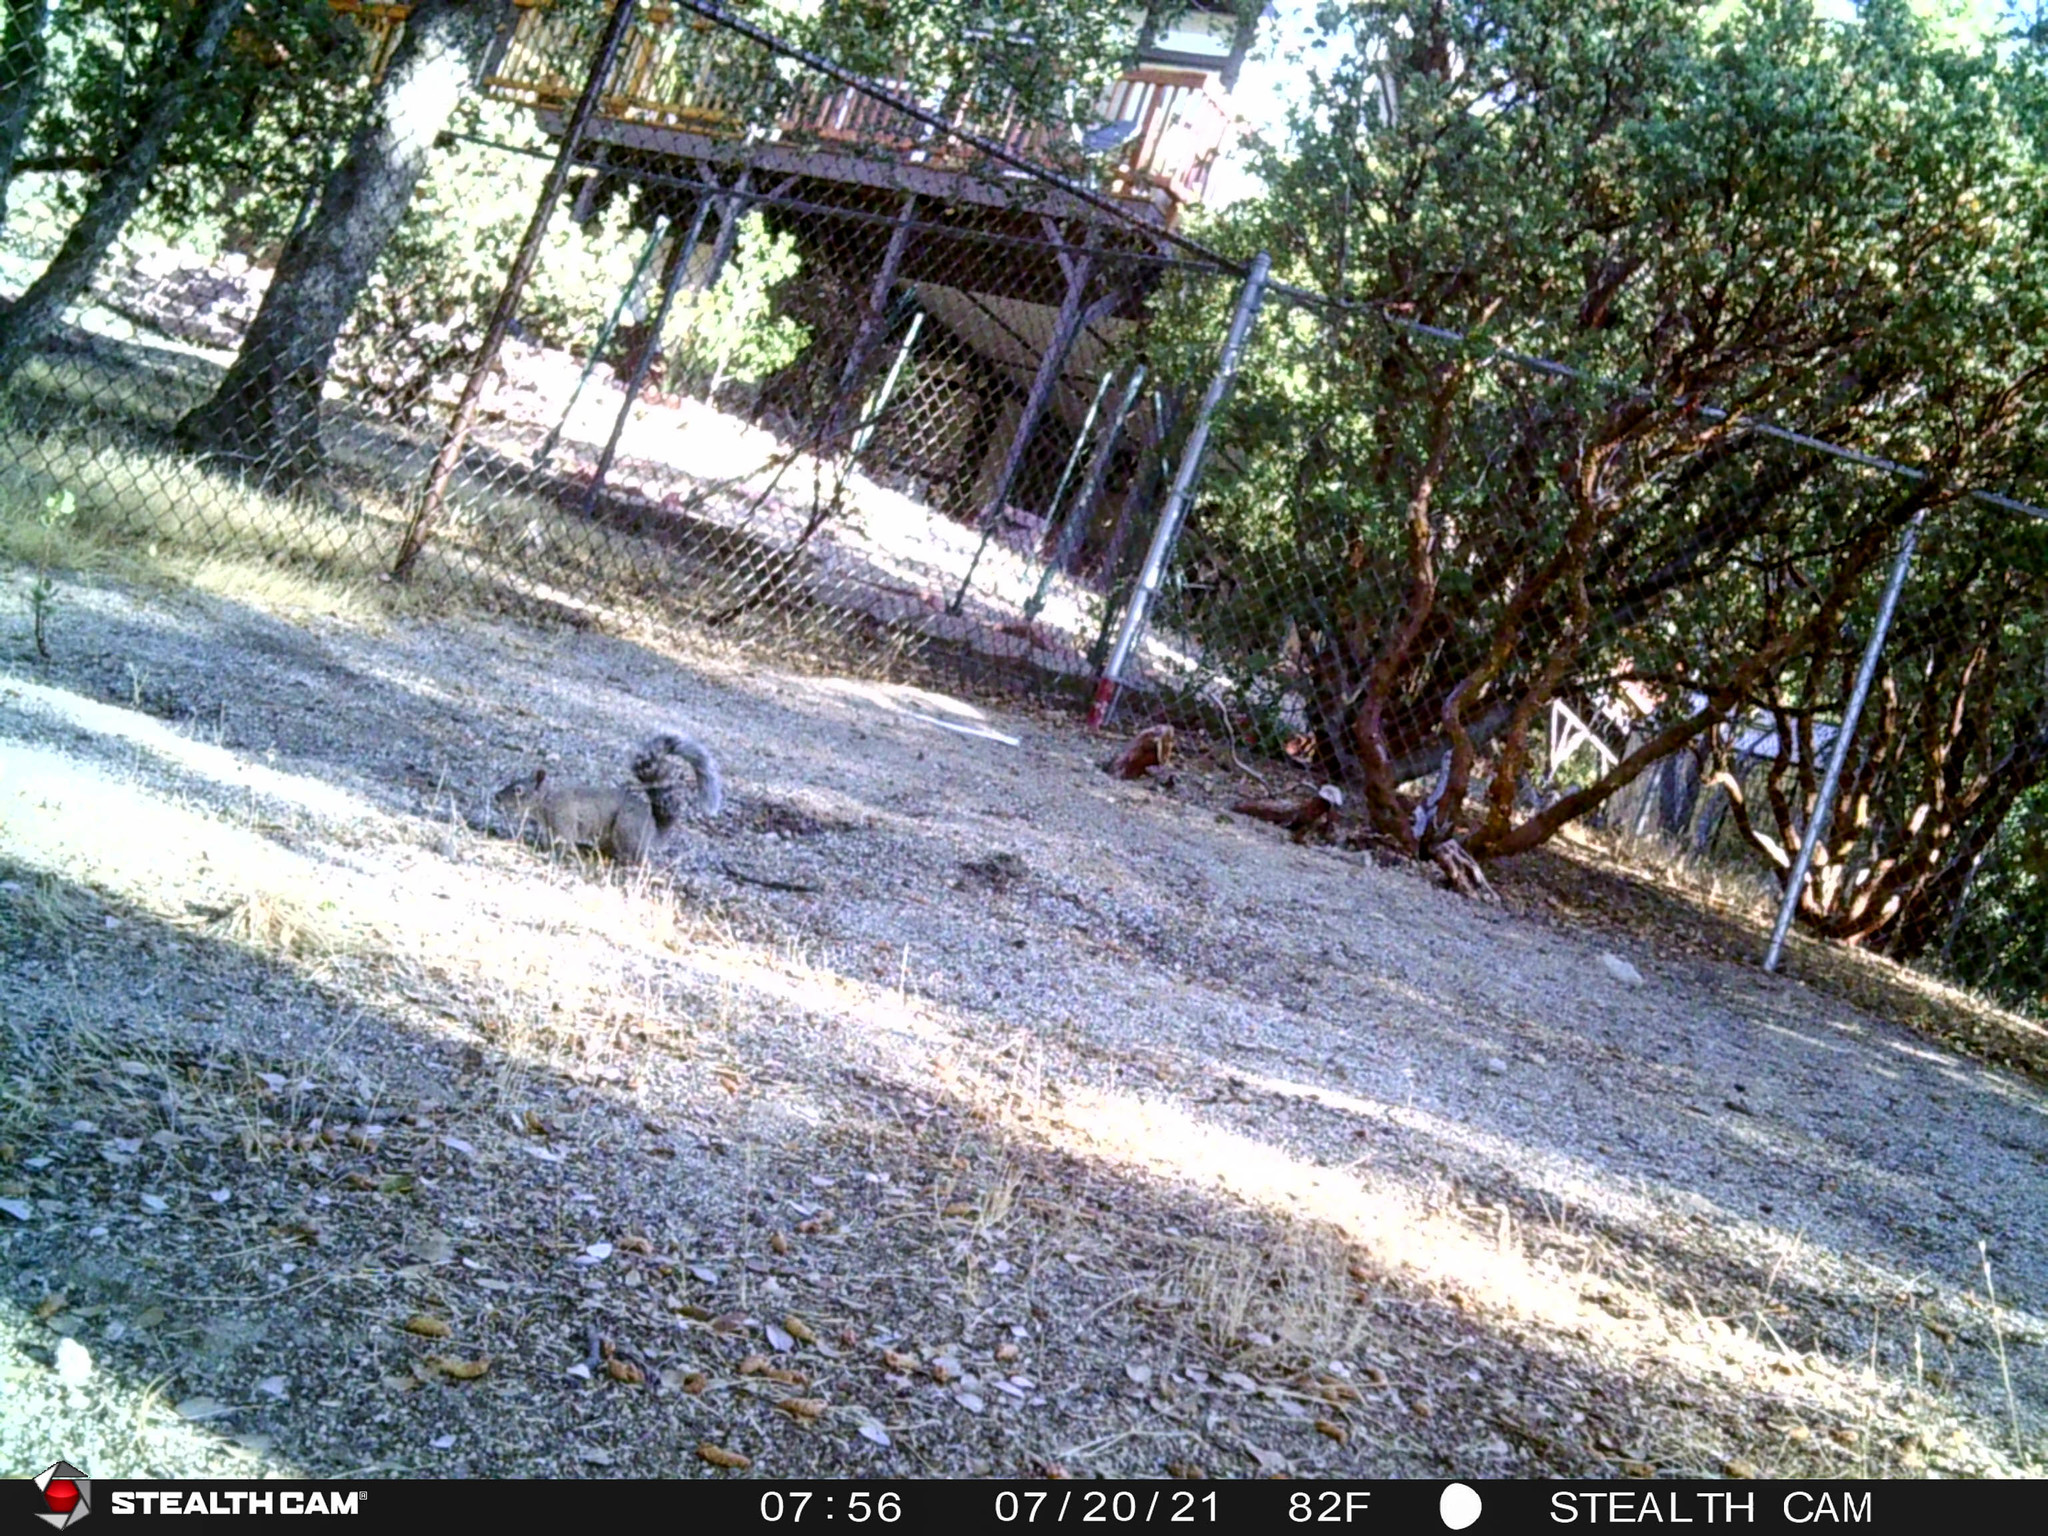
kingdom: Animalia
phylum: Chordata
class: Mammalia
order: Rodentia
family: Sciuridae
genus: Sciurus
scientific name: Sciurus griseus
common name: Western gray squirrel
